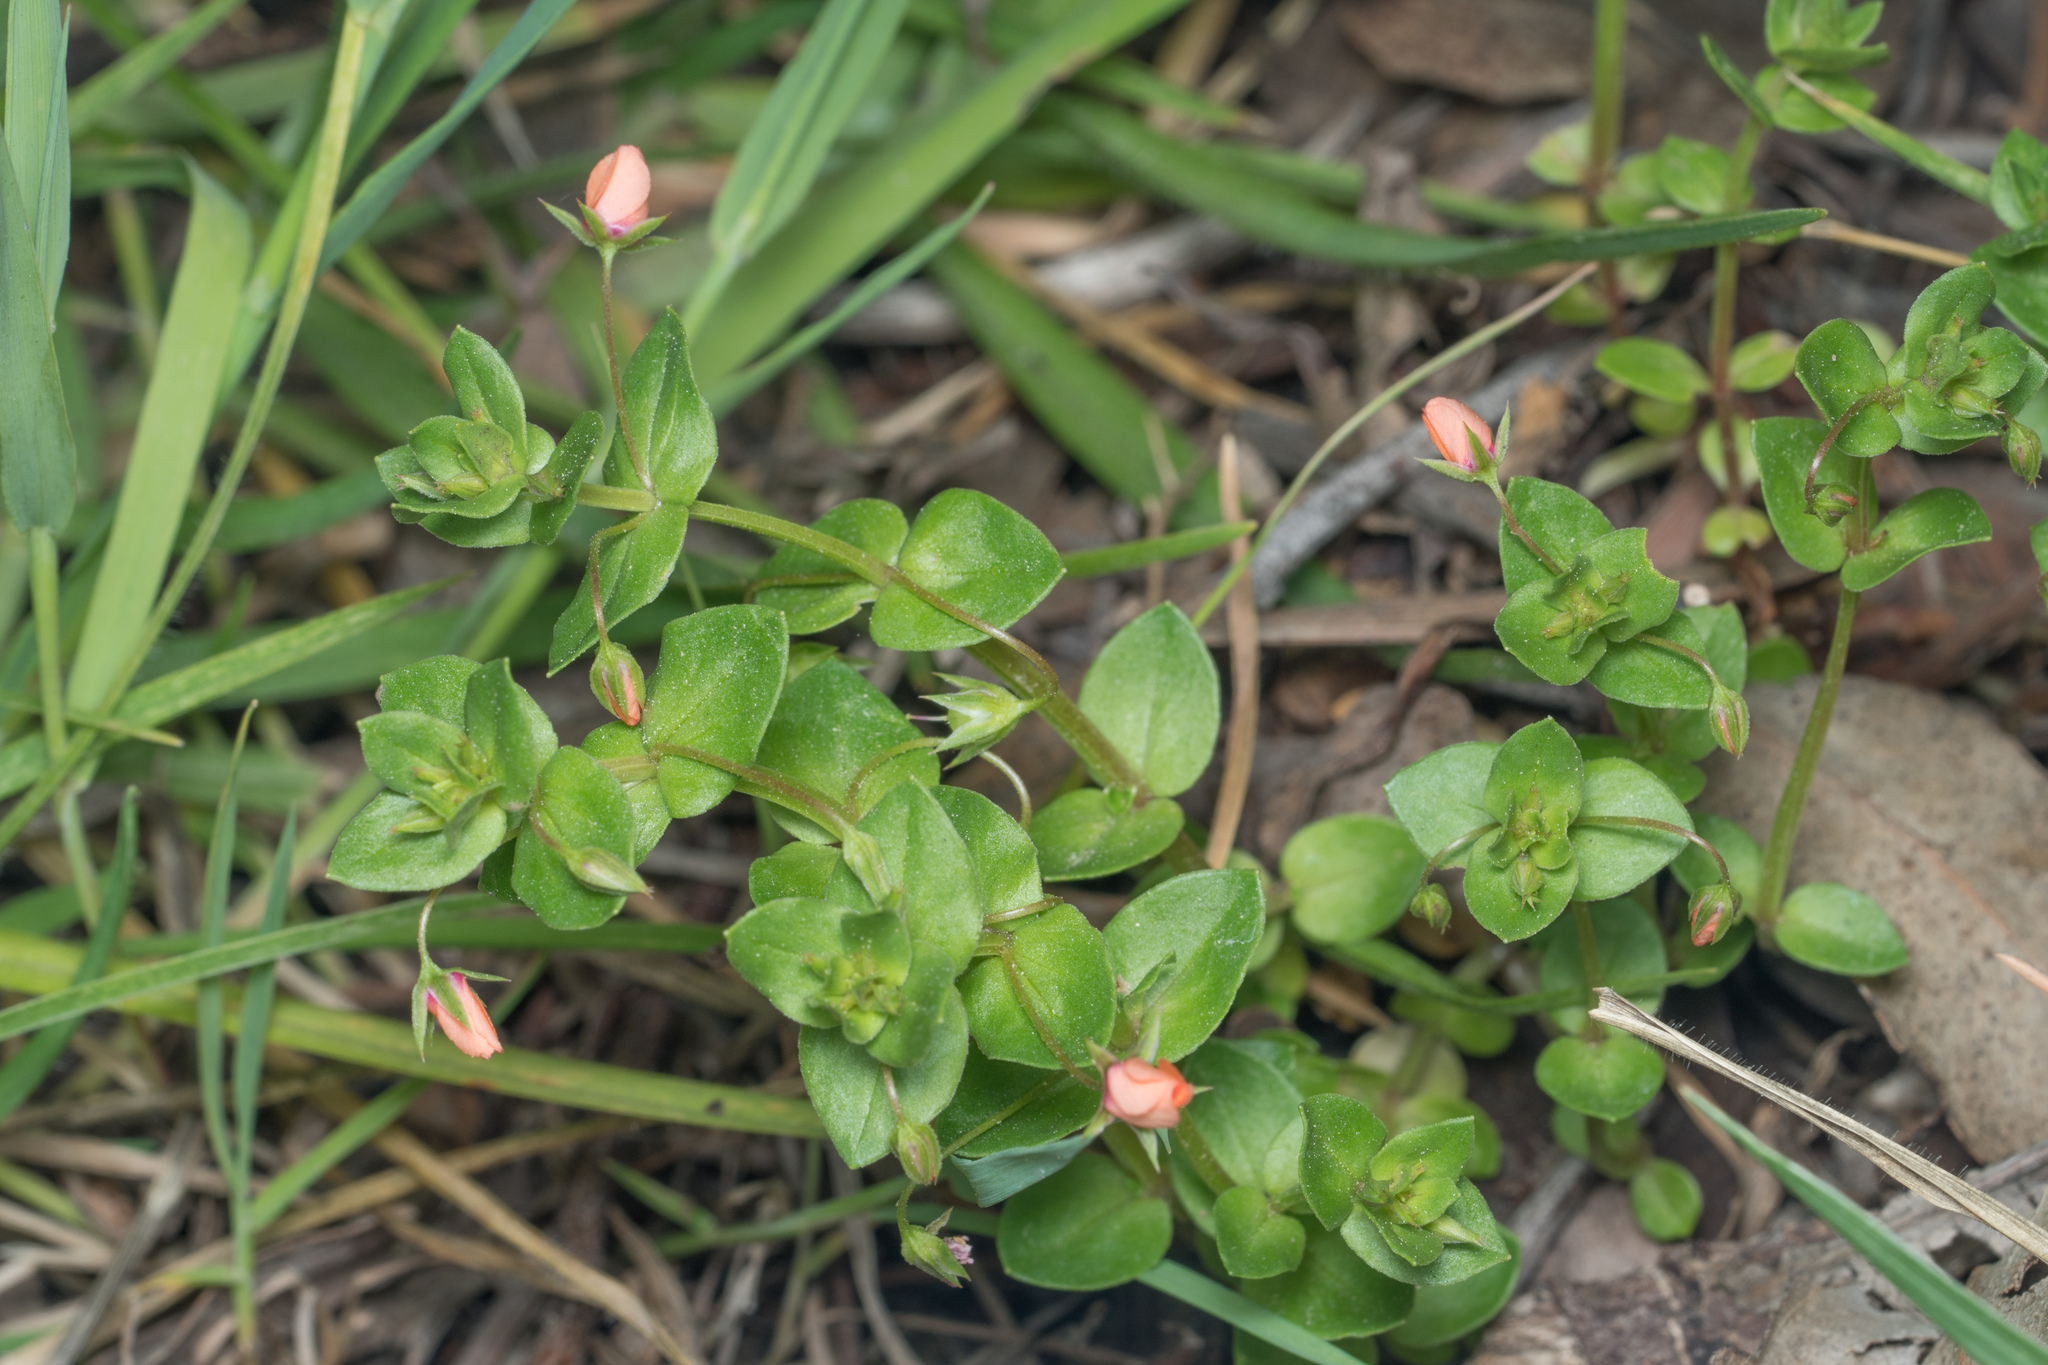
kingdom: Plantae
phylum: Tracheophyta
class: Magnoliopsida
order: Ericales
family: Primulaceae
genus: Lysimachia
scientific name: Lysimachia arvensis
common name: Scarlet pimpernel
